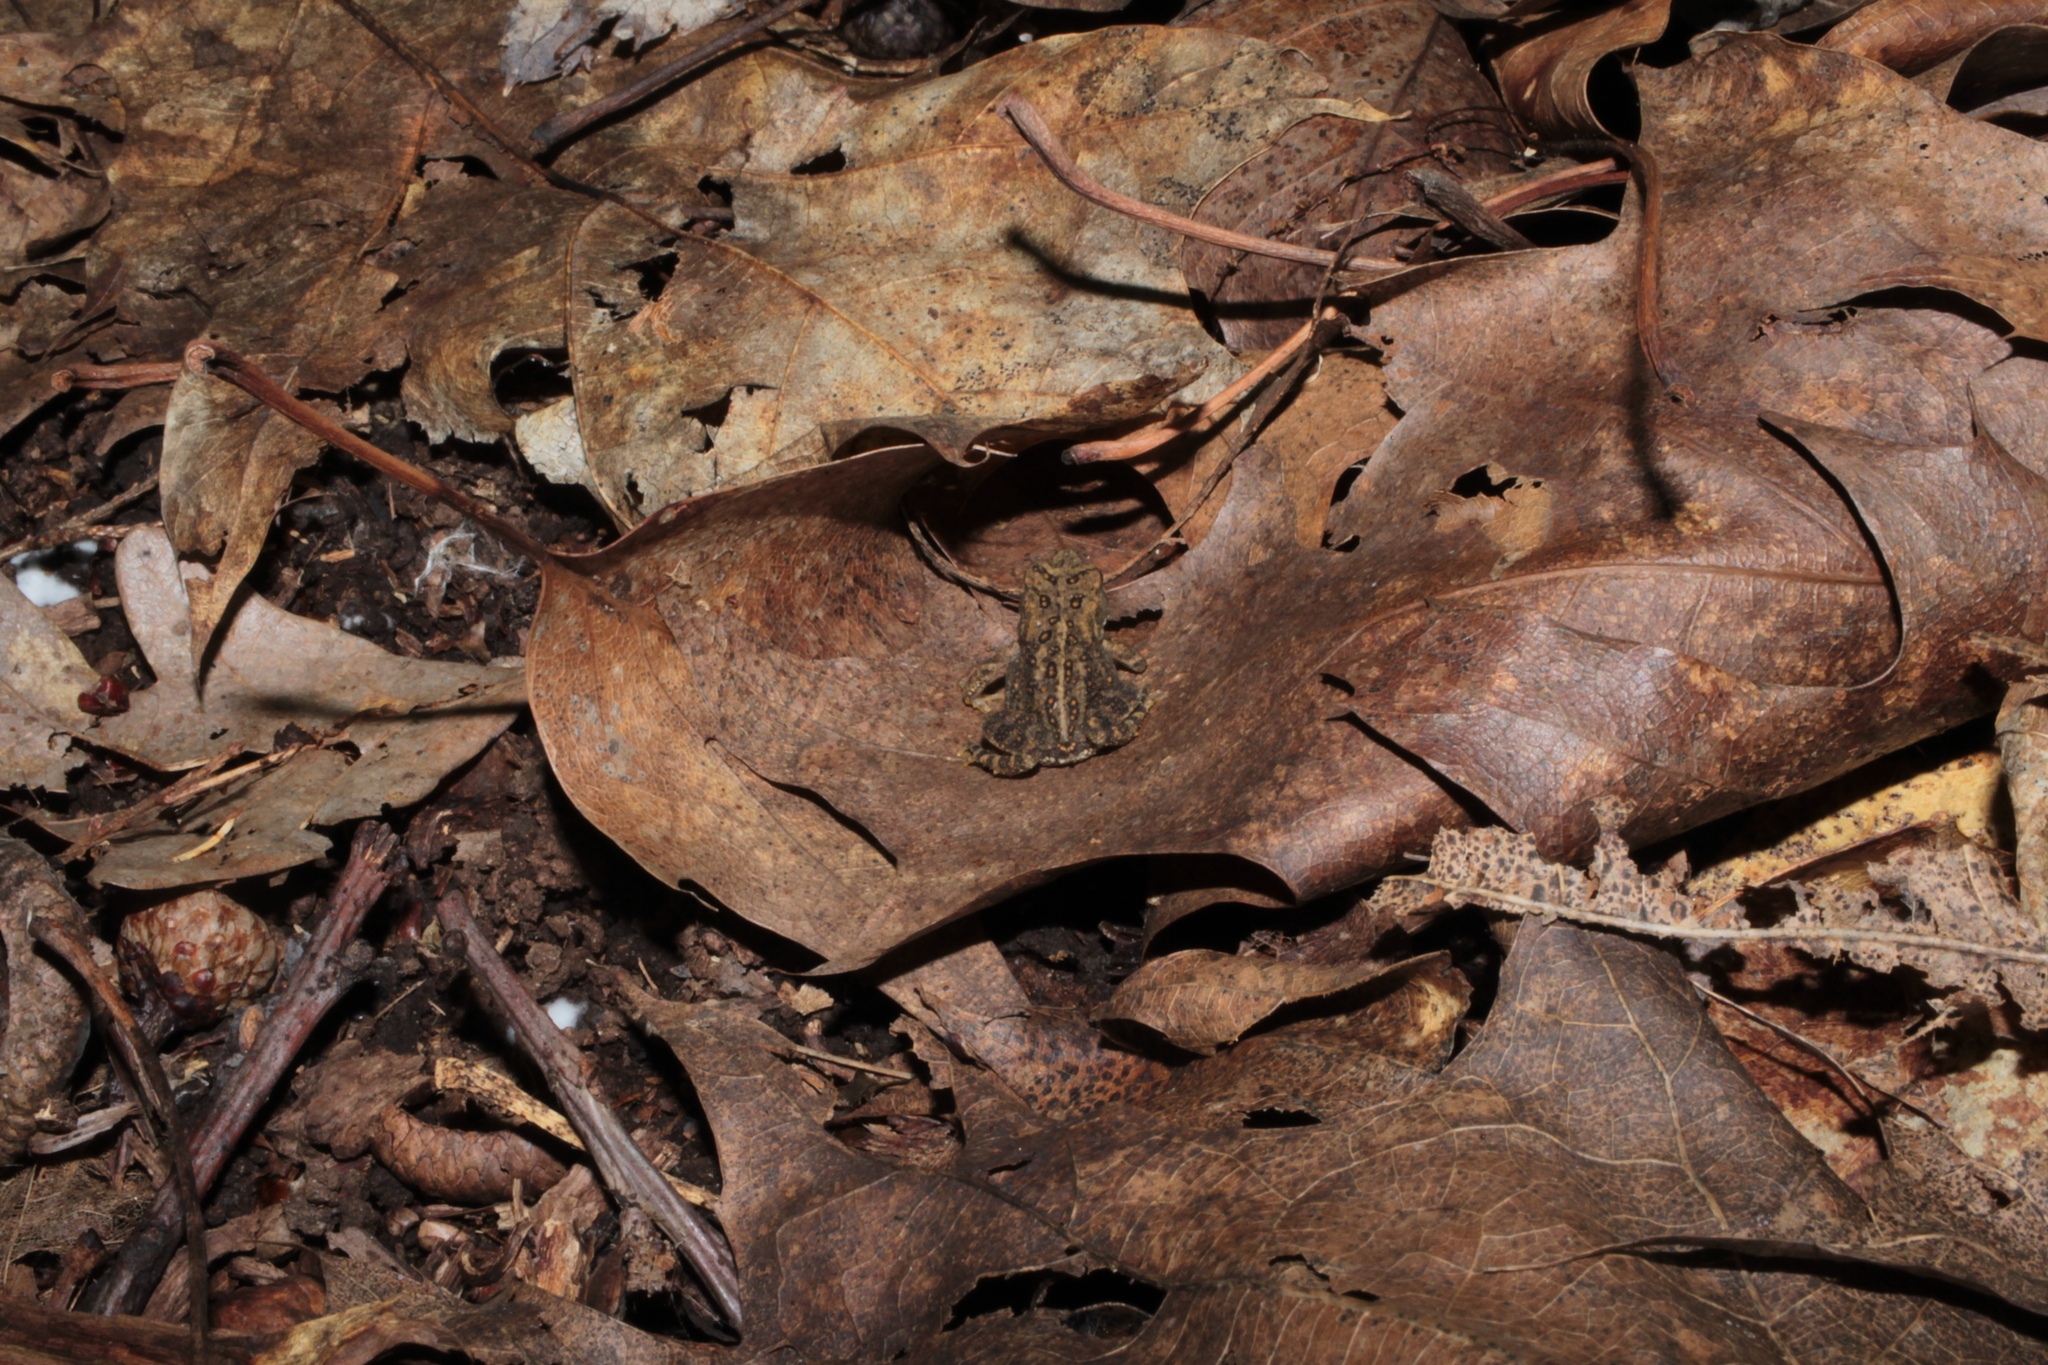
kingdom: Animalia
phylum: Chordata
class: Amphibia
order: Anura
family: Bufonidae
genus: Anaxyrus
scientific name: Anaxyrus americanus
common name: American toad
